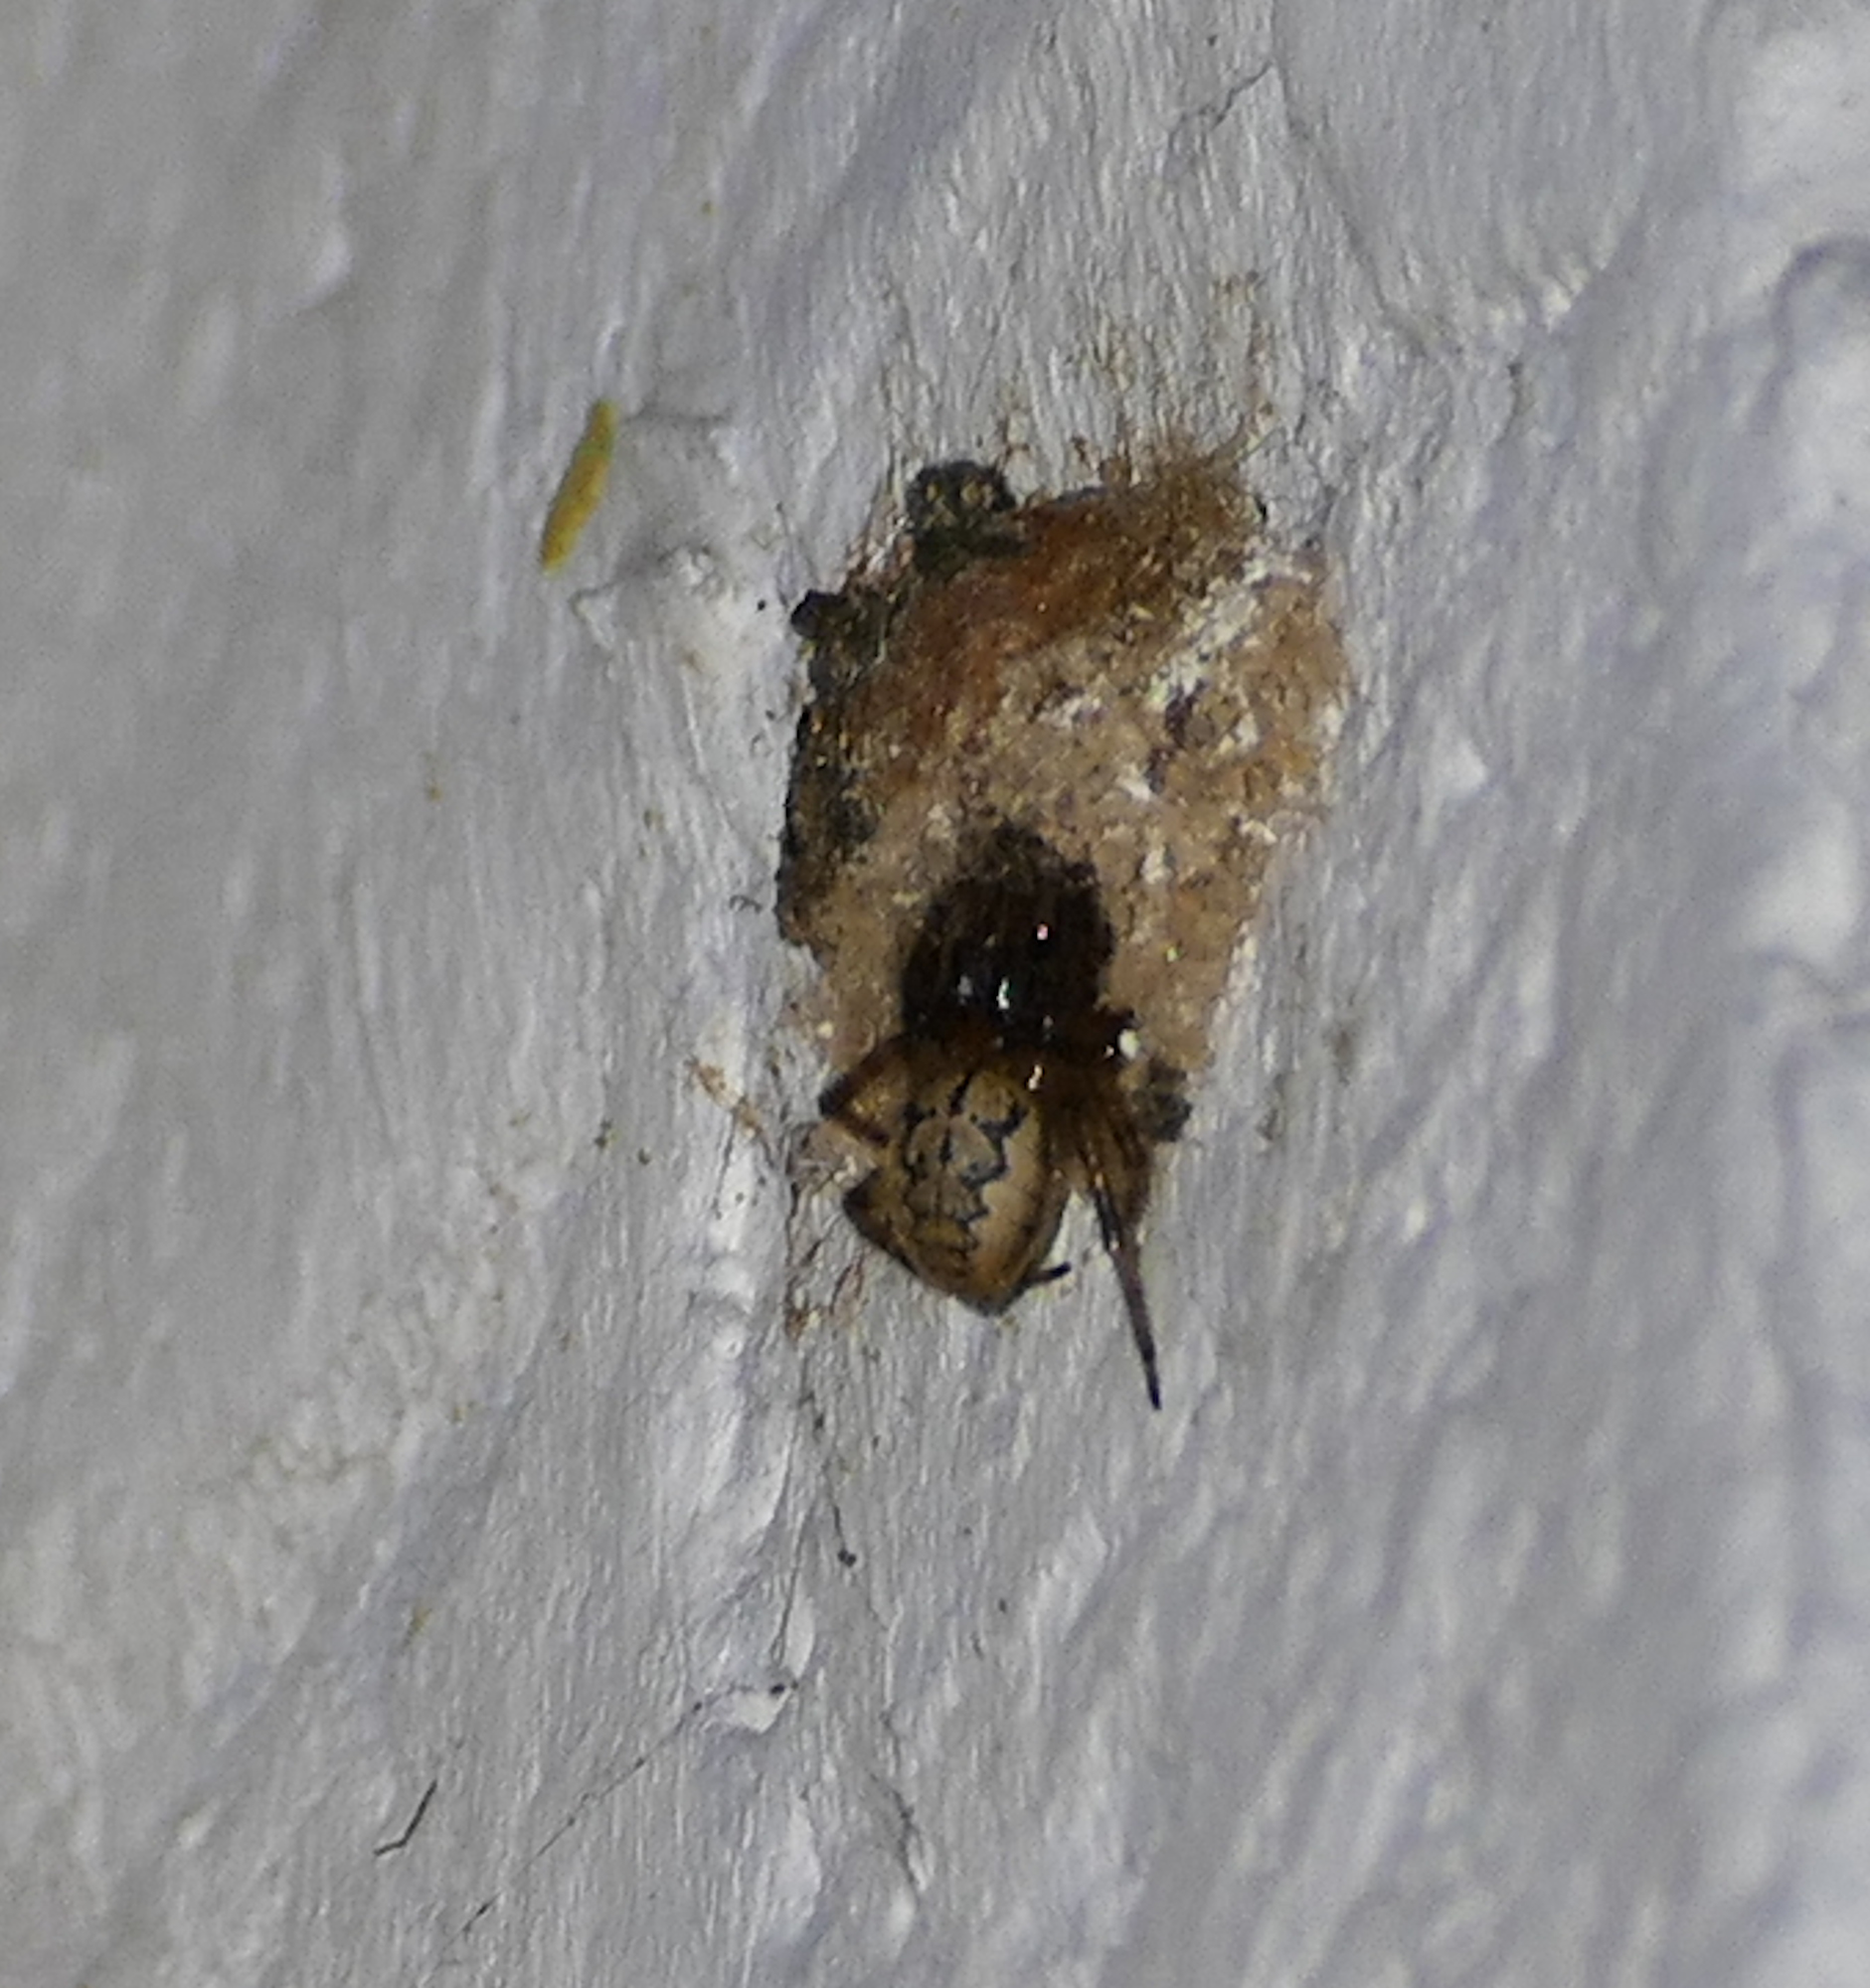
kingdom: Animalia
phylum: Arthropoda
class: Arachnida
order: Araneae
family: Araneidae
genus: Metazygia
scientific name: Metazygia wittfeldae
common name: Orb weavers
